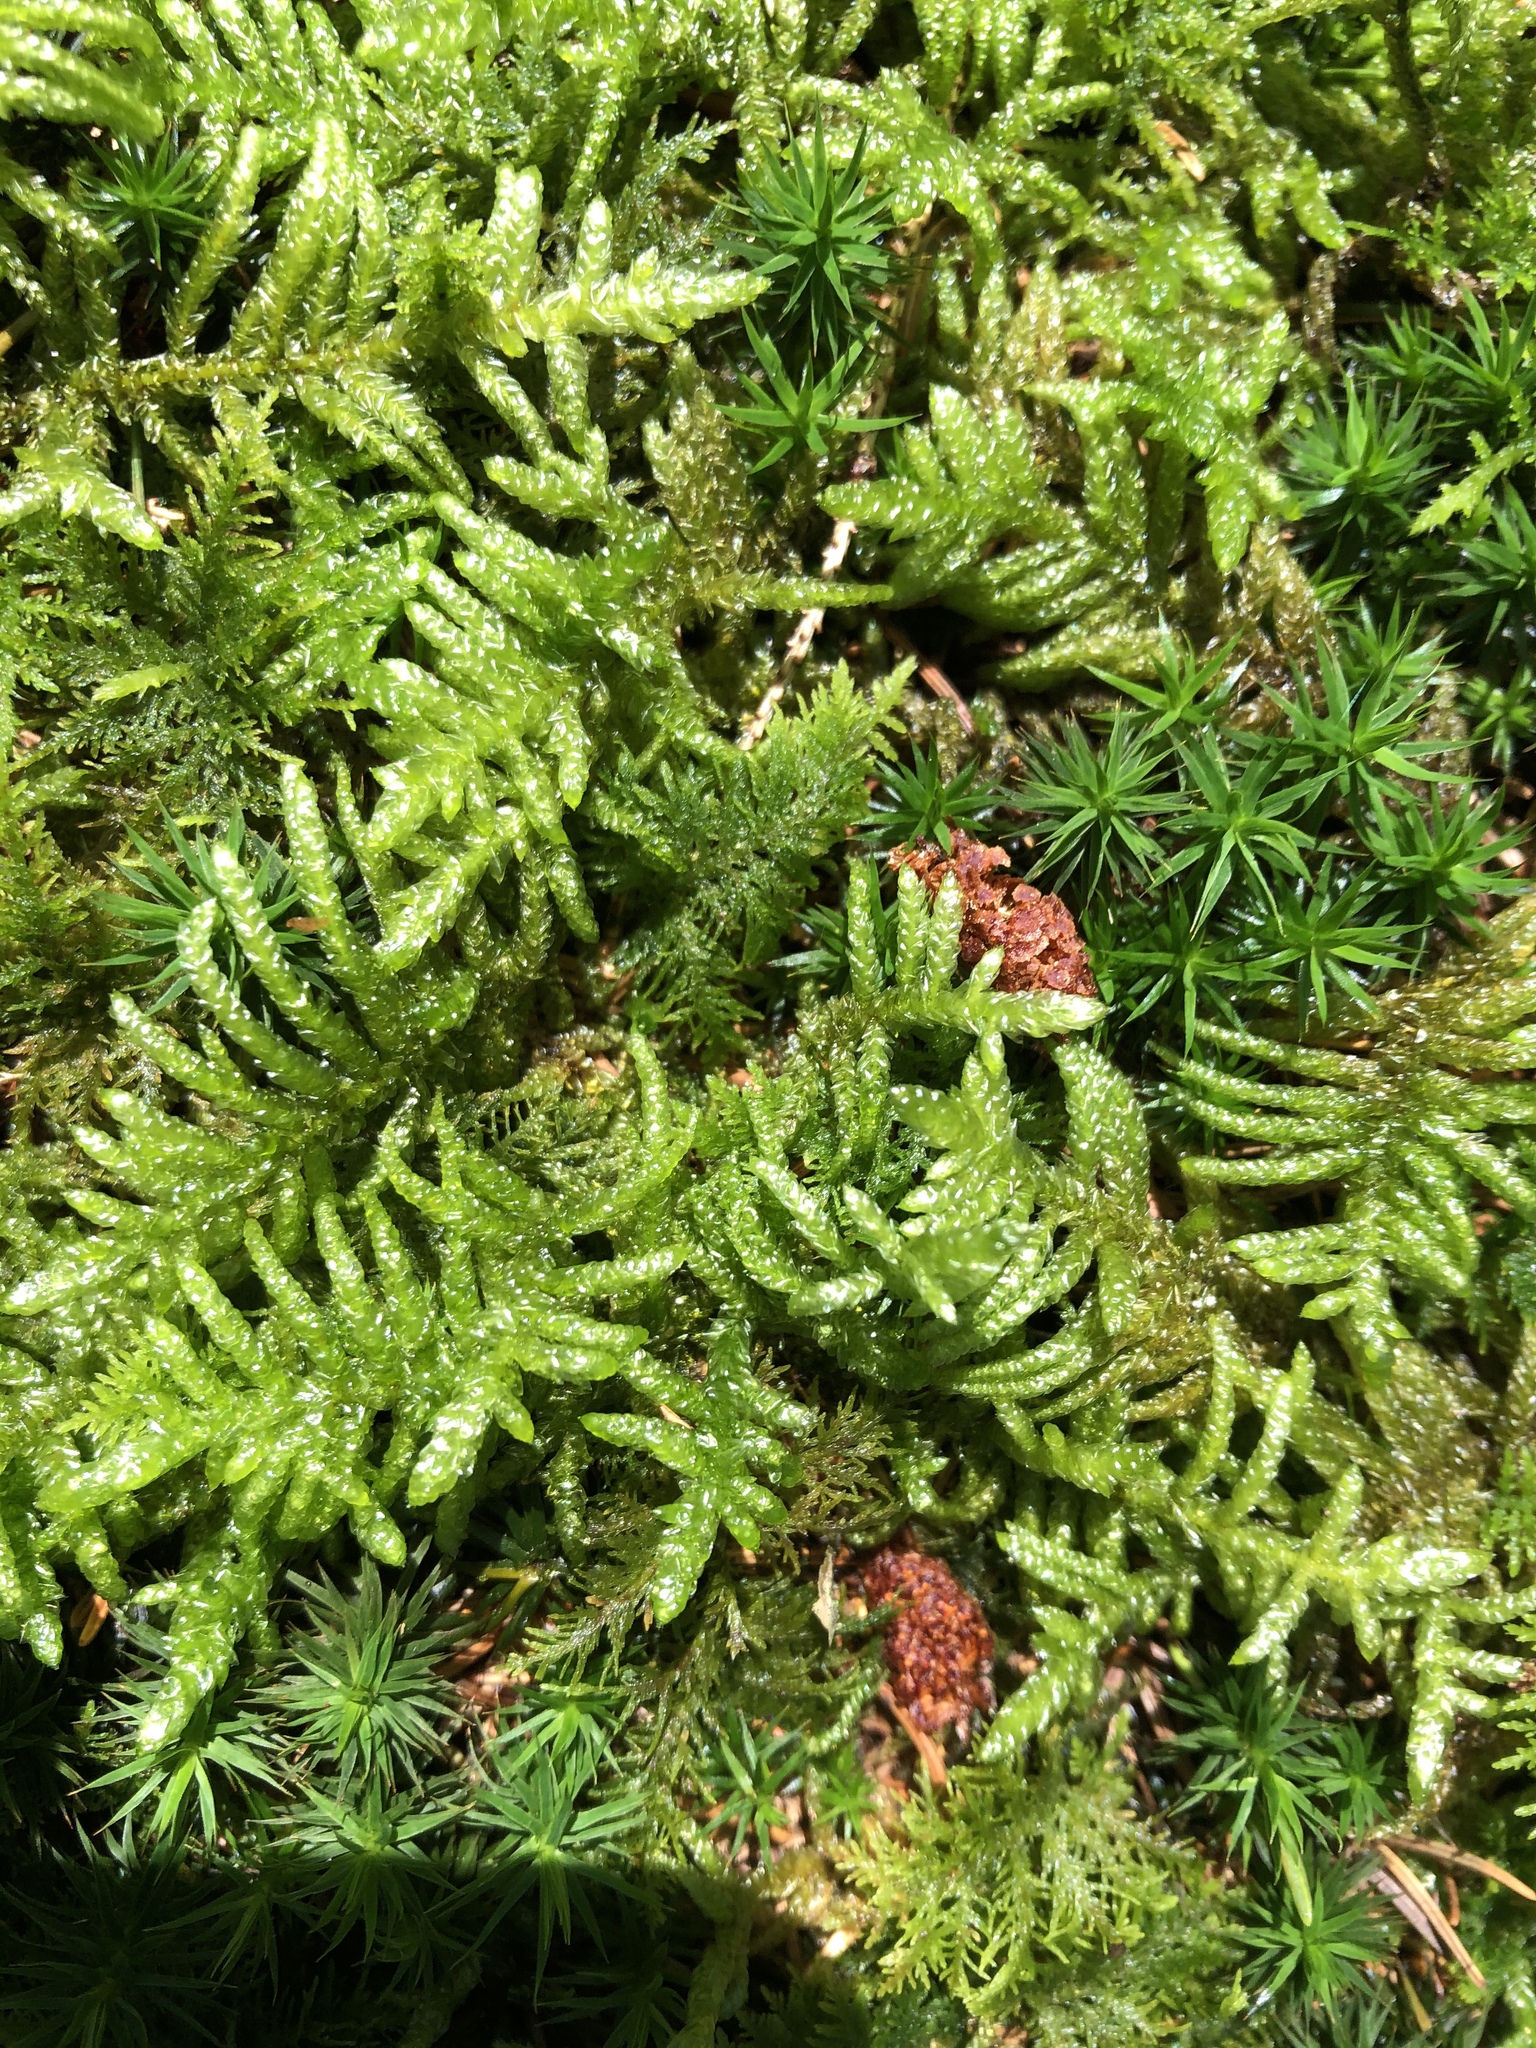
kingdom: Plantae
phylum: Bryophyta
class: Bryopsida
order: Hypnales
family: Brachytheciaceae
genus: Pseudoscleropodium
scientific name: Pseudoscleropodium purum
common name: Neat feather-moss
